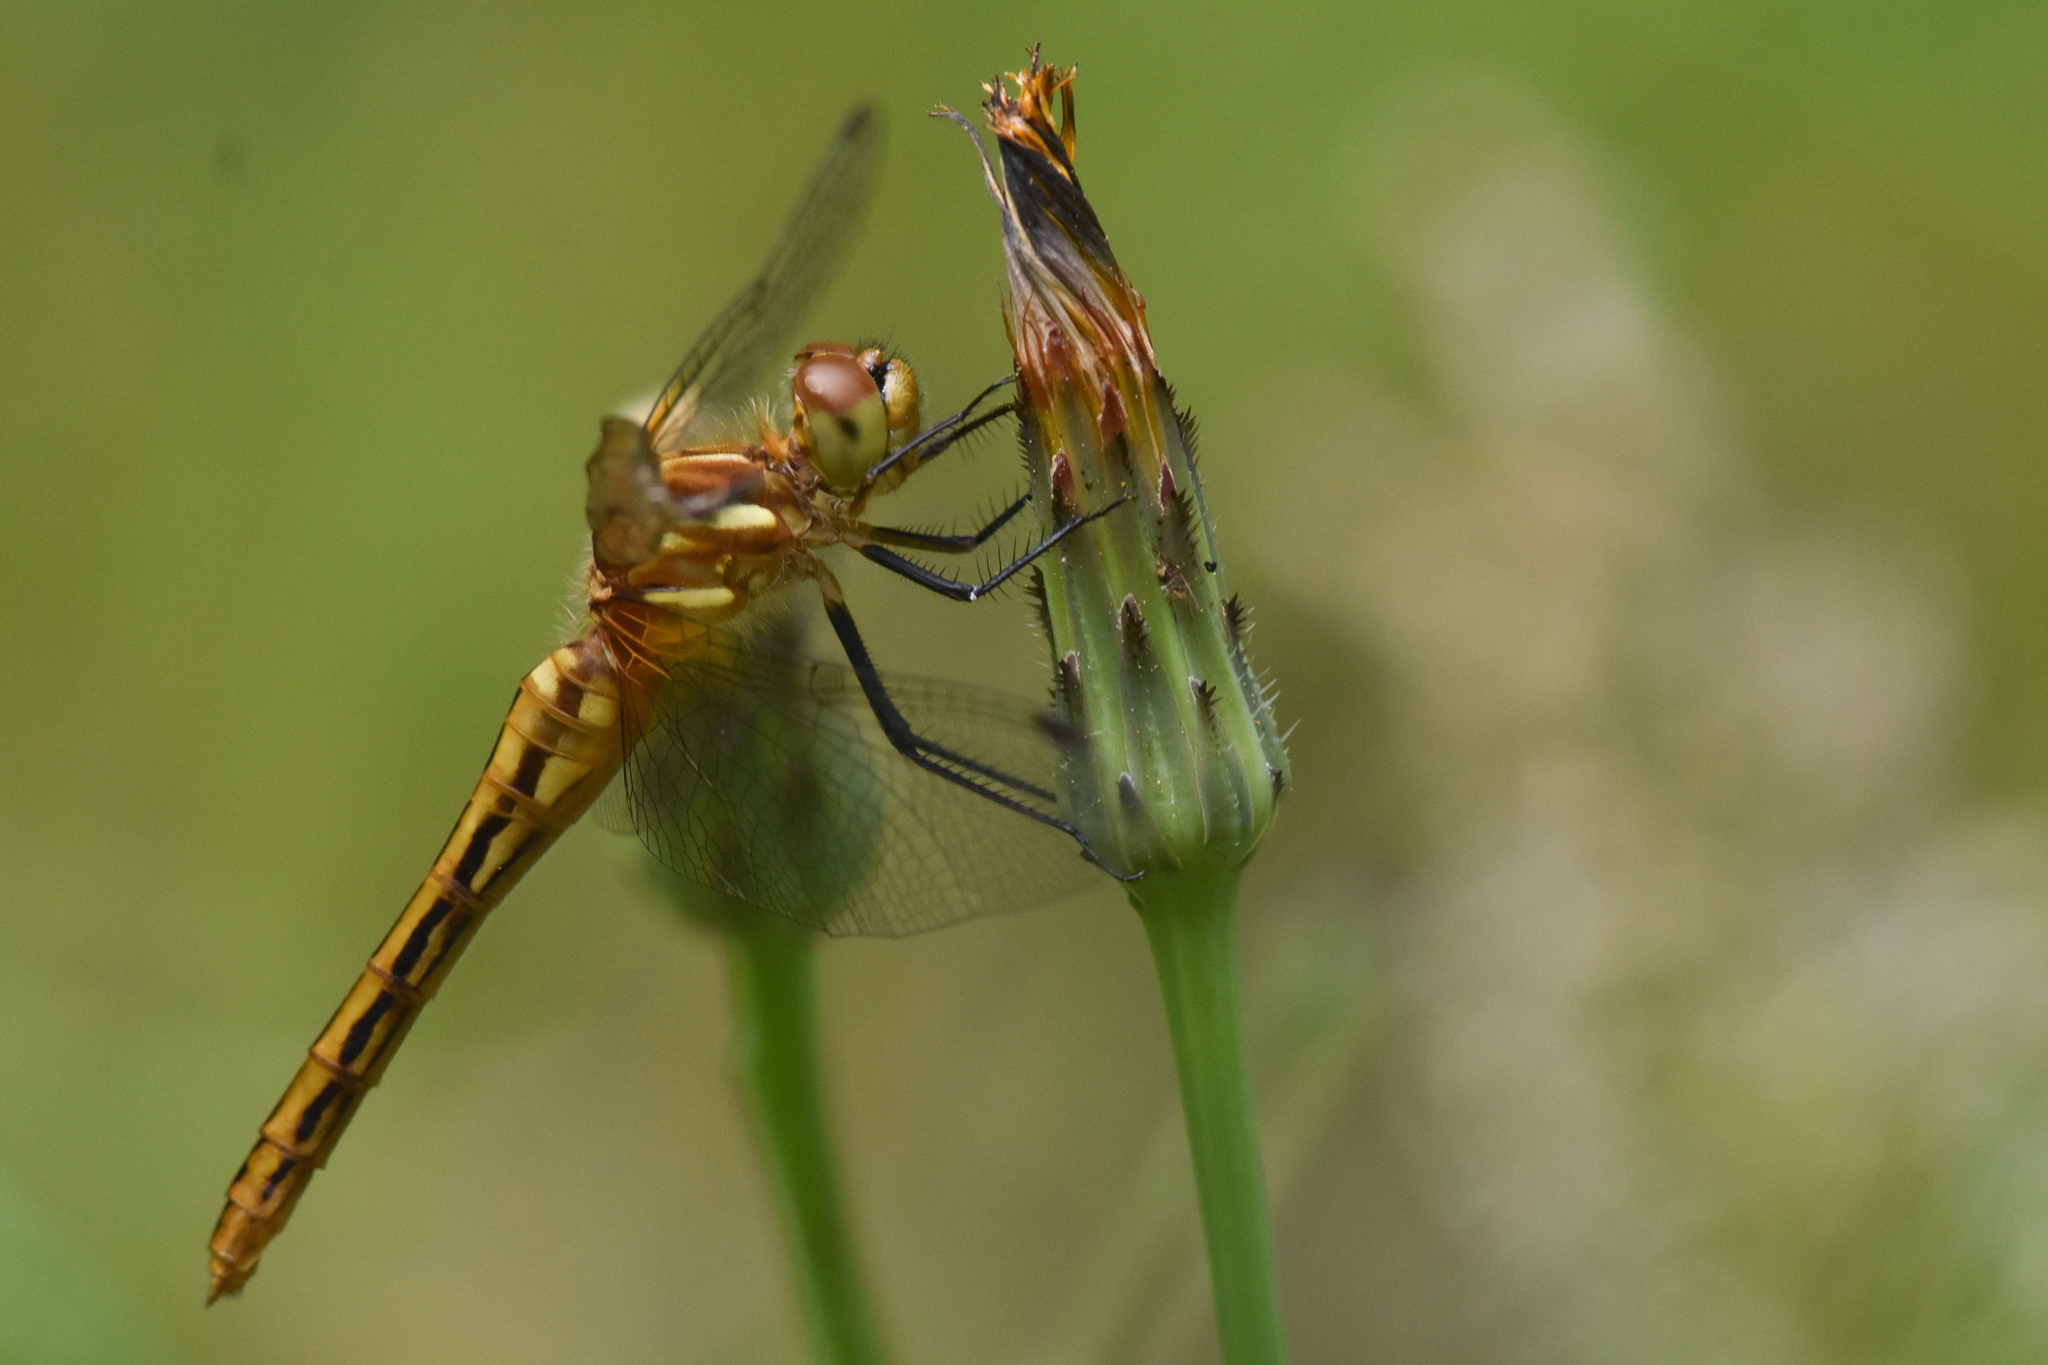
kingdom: Animalia
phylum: Arthropoda
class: Insecta
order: Odonata
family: Libellulidae
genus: Sympetrum
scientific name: Sympetrum pallipes
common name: Striped meadowhawk
